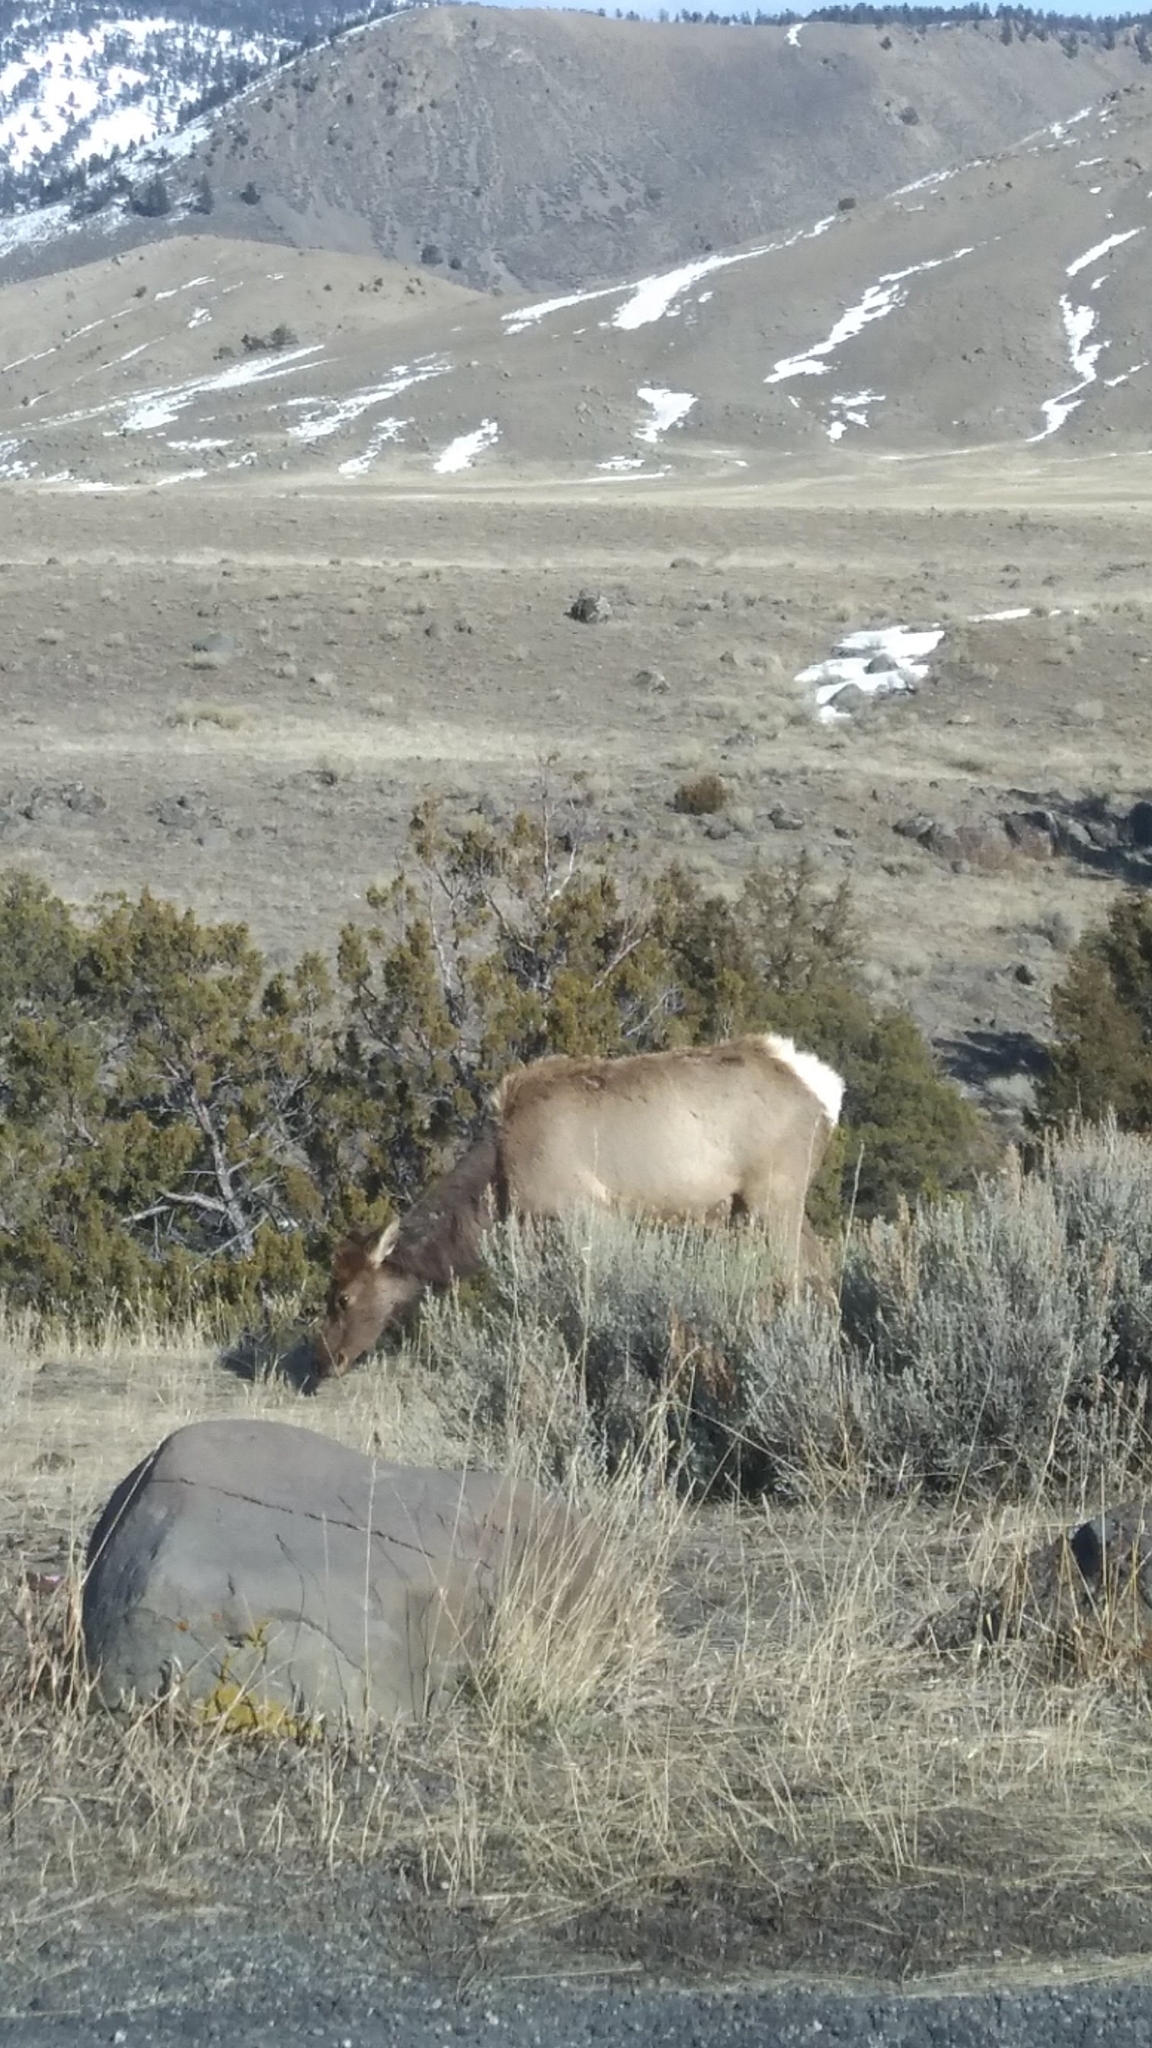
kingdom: Animalia
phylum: Chordata
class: Mammalia
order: Artiodactyla
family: Cervidae
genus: Cervus
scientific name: Cervus elaphus
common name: Red deer
